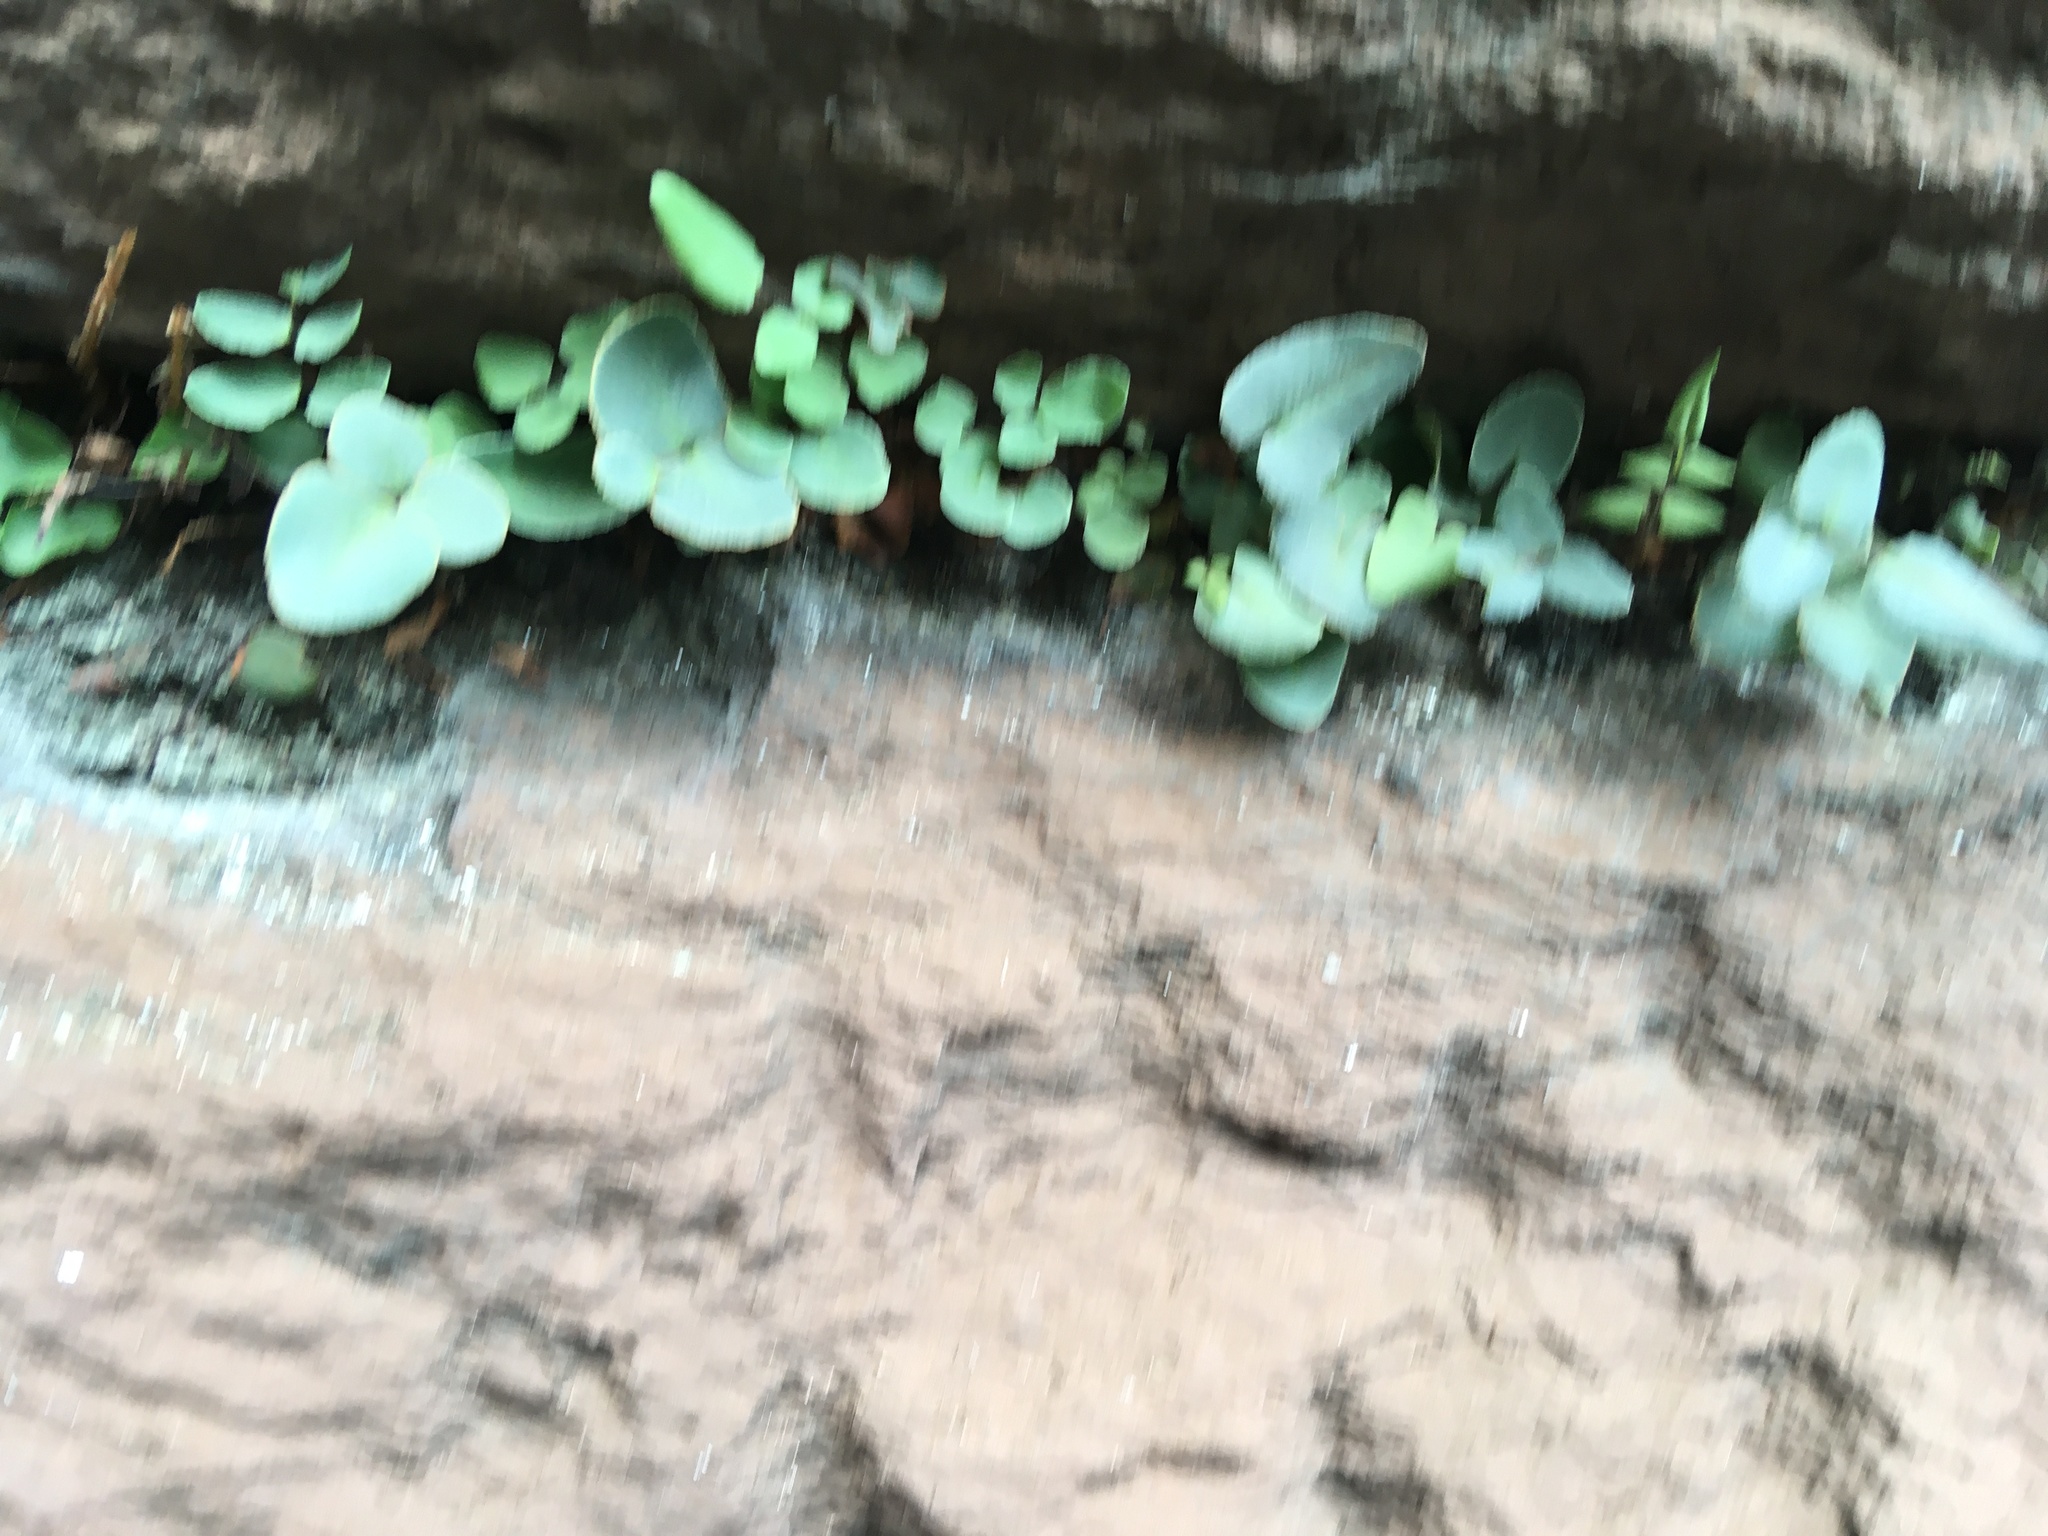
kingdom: Plantae
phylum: Tracheophyta
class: Polypodiopsida
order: Polypodiales
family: Pteridaceae
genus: Pellaea
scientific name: Pellaea atropurpurea
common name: Hairy cliffbrake
